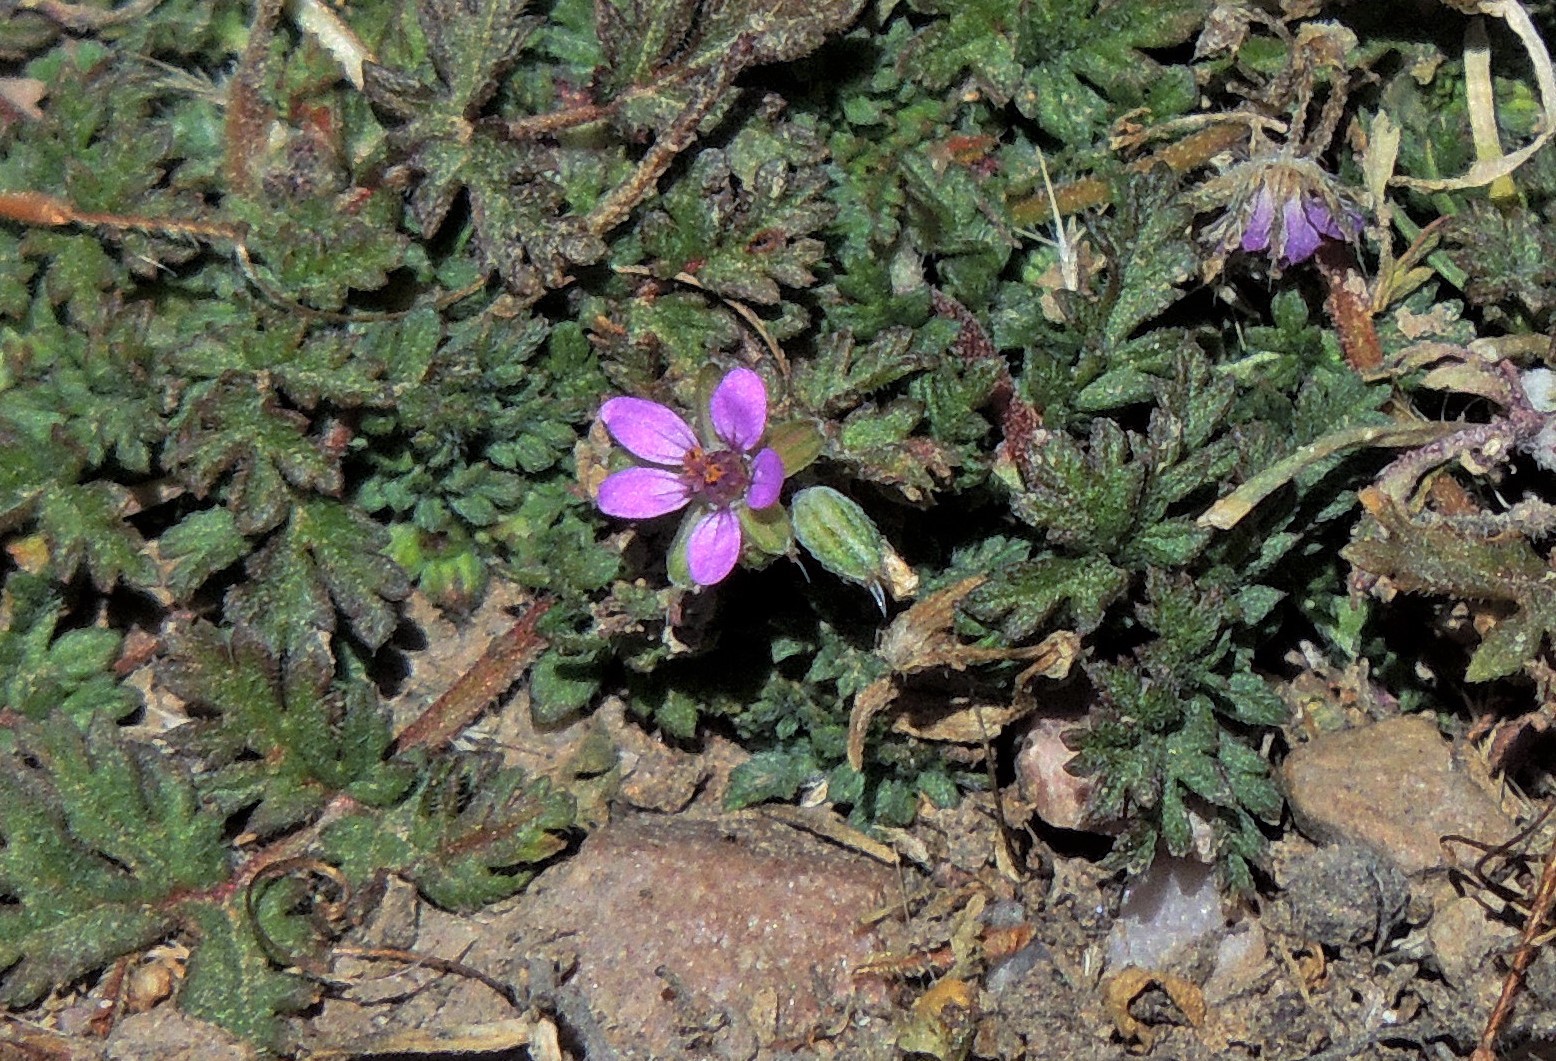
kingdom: Plantae
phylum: Tracheophyta
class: Magnoliopsida
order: Geraniales
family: Geraniaceae
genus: Erodium
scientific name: Erodium cicutarium
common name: Common stork's-bill
